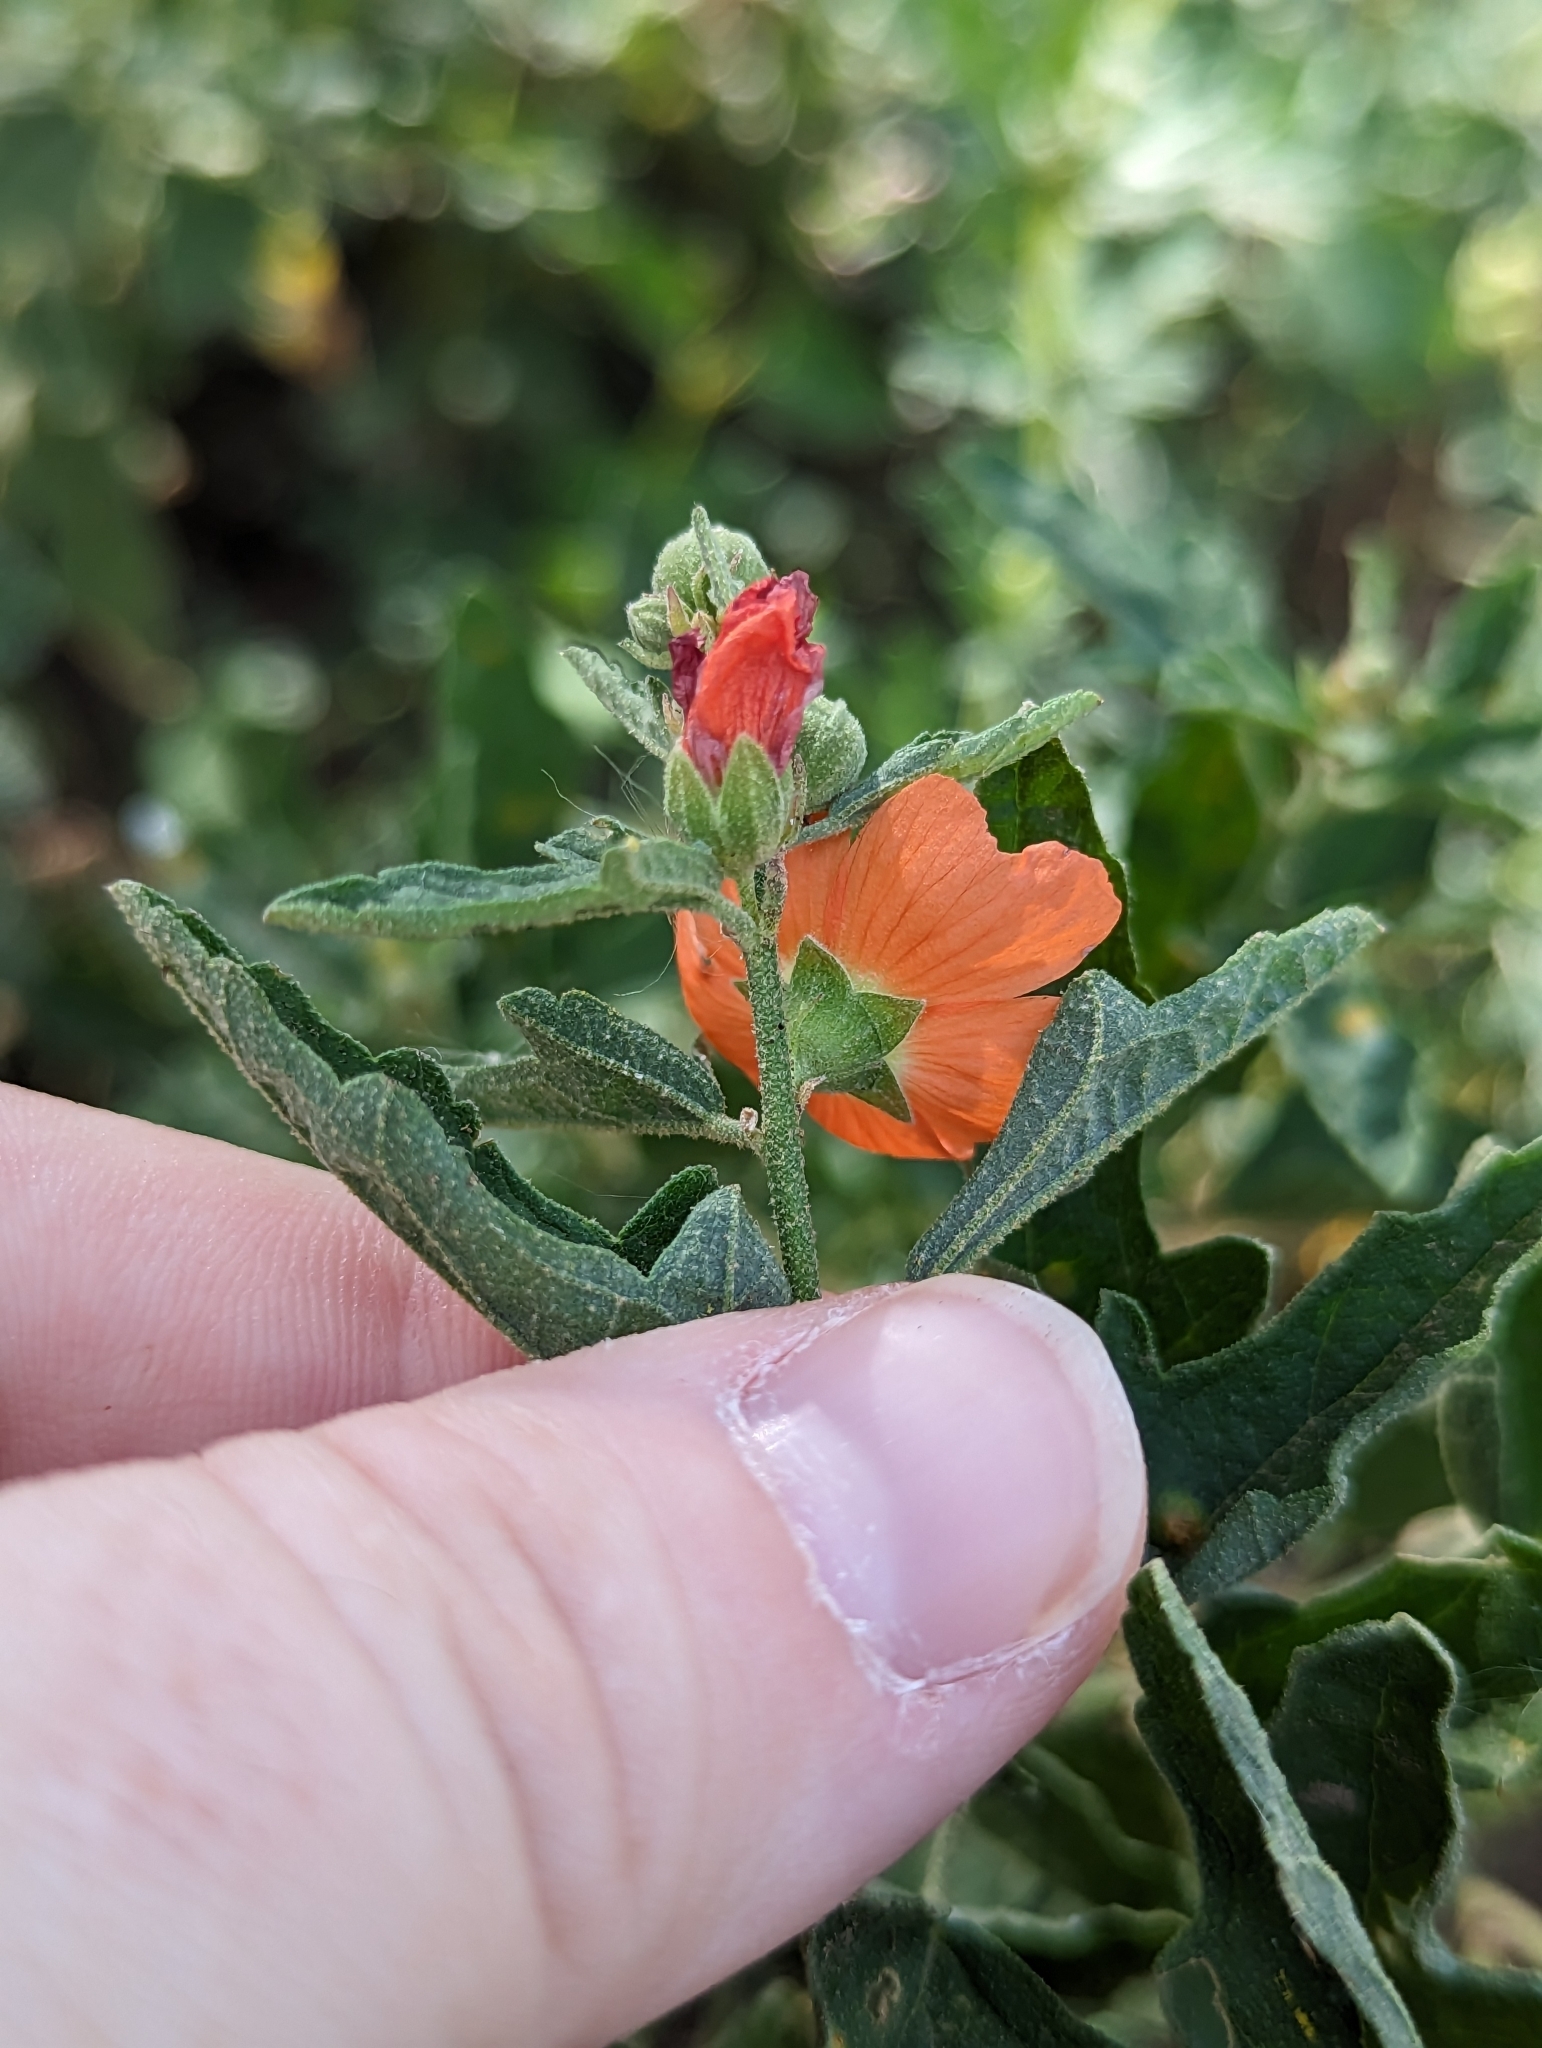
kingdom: Plantae
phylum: Tracheophyta
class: Magnoliopsida
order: Malvales
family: Malvaceae
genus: Sphaeralcea
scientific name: Sphaeralcea fendleri
